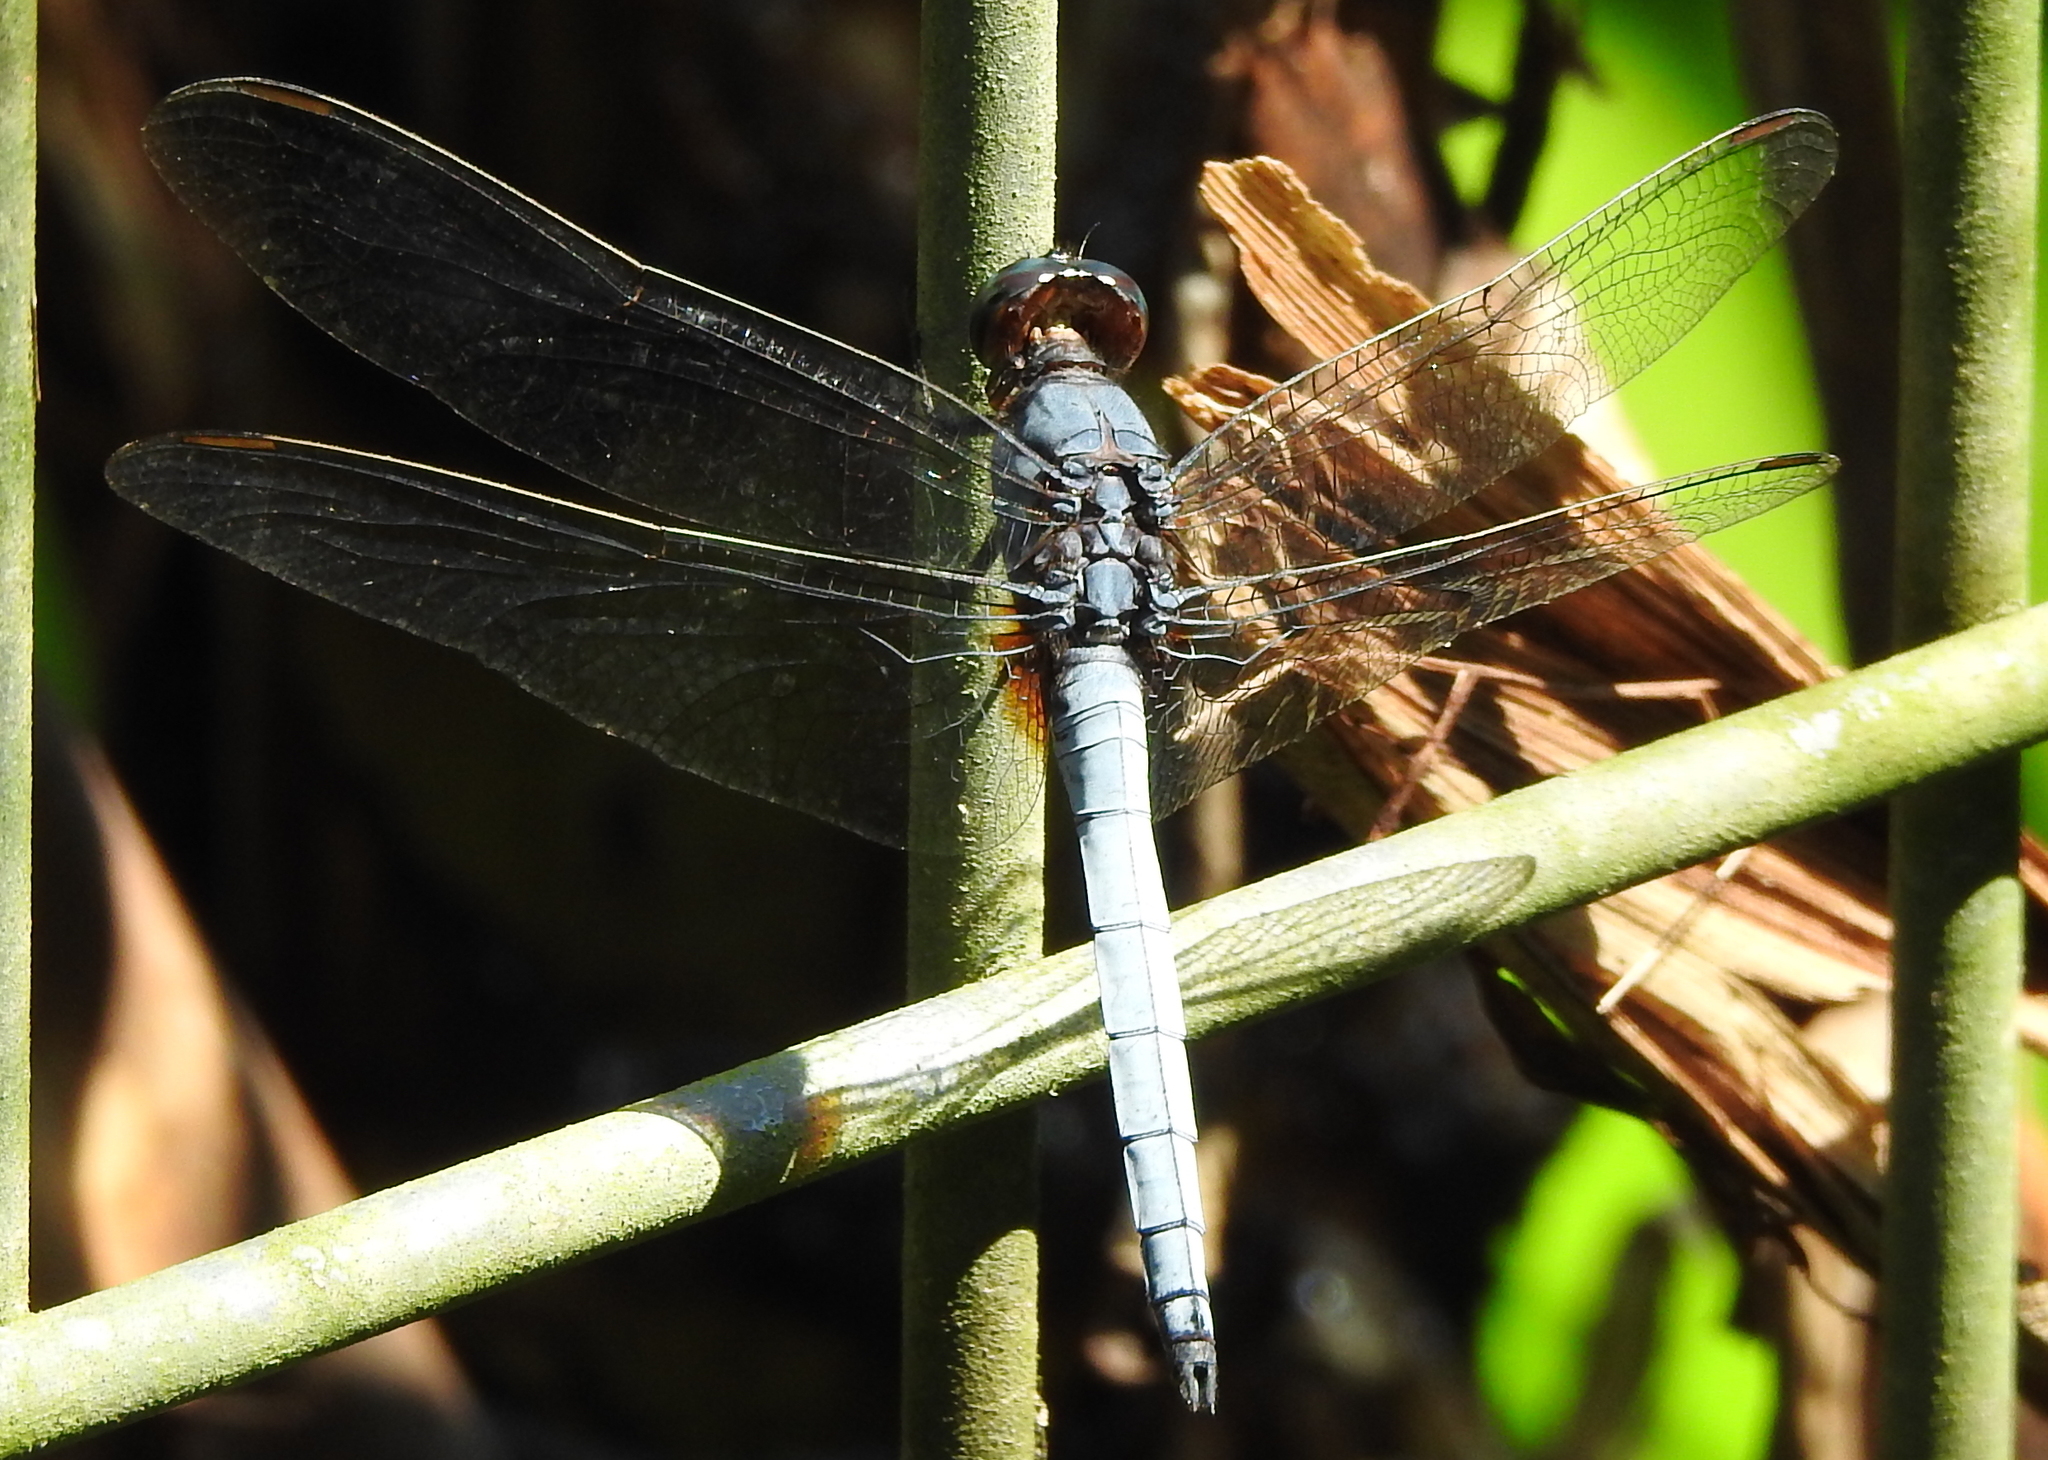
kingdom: Animalia
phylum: Arthropoda
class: Insecta
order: Odonata
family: Libellulidae
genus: Orthetrum
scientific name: Orthetrum glaucum
